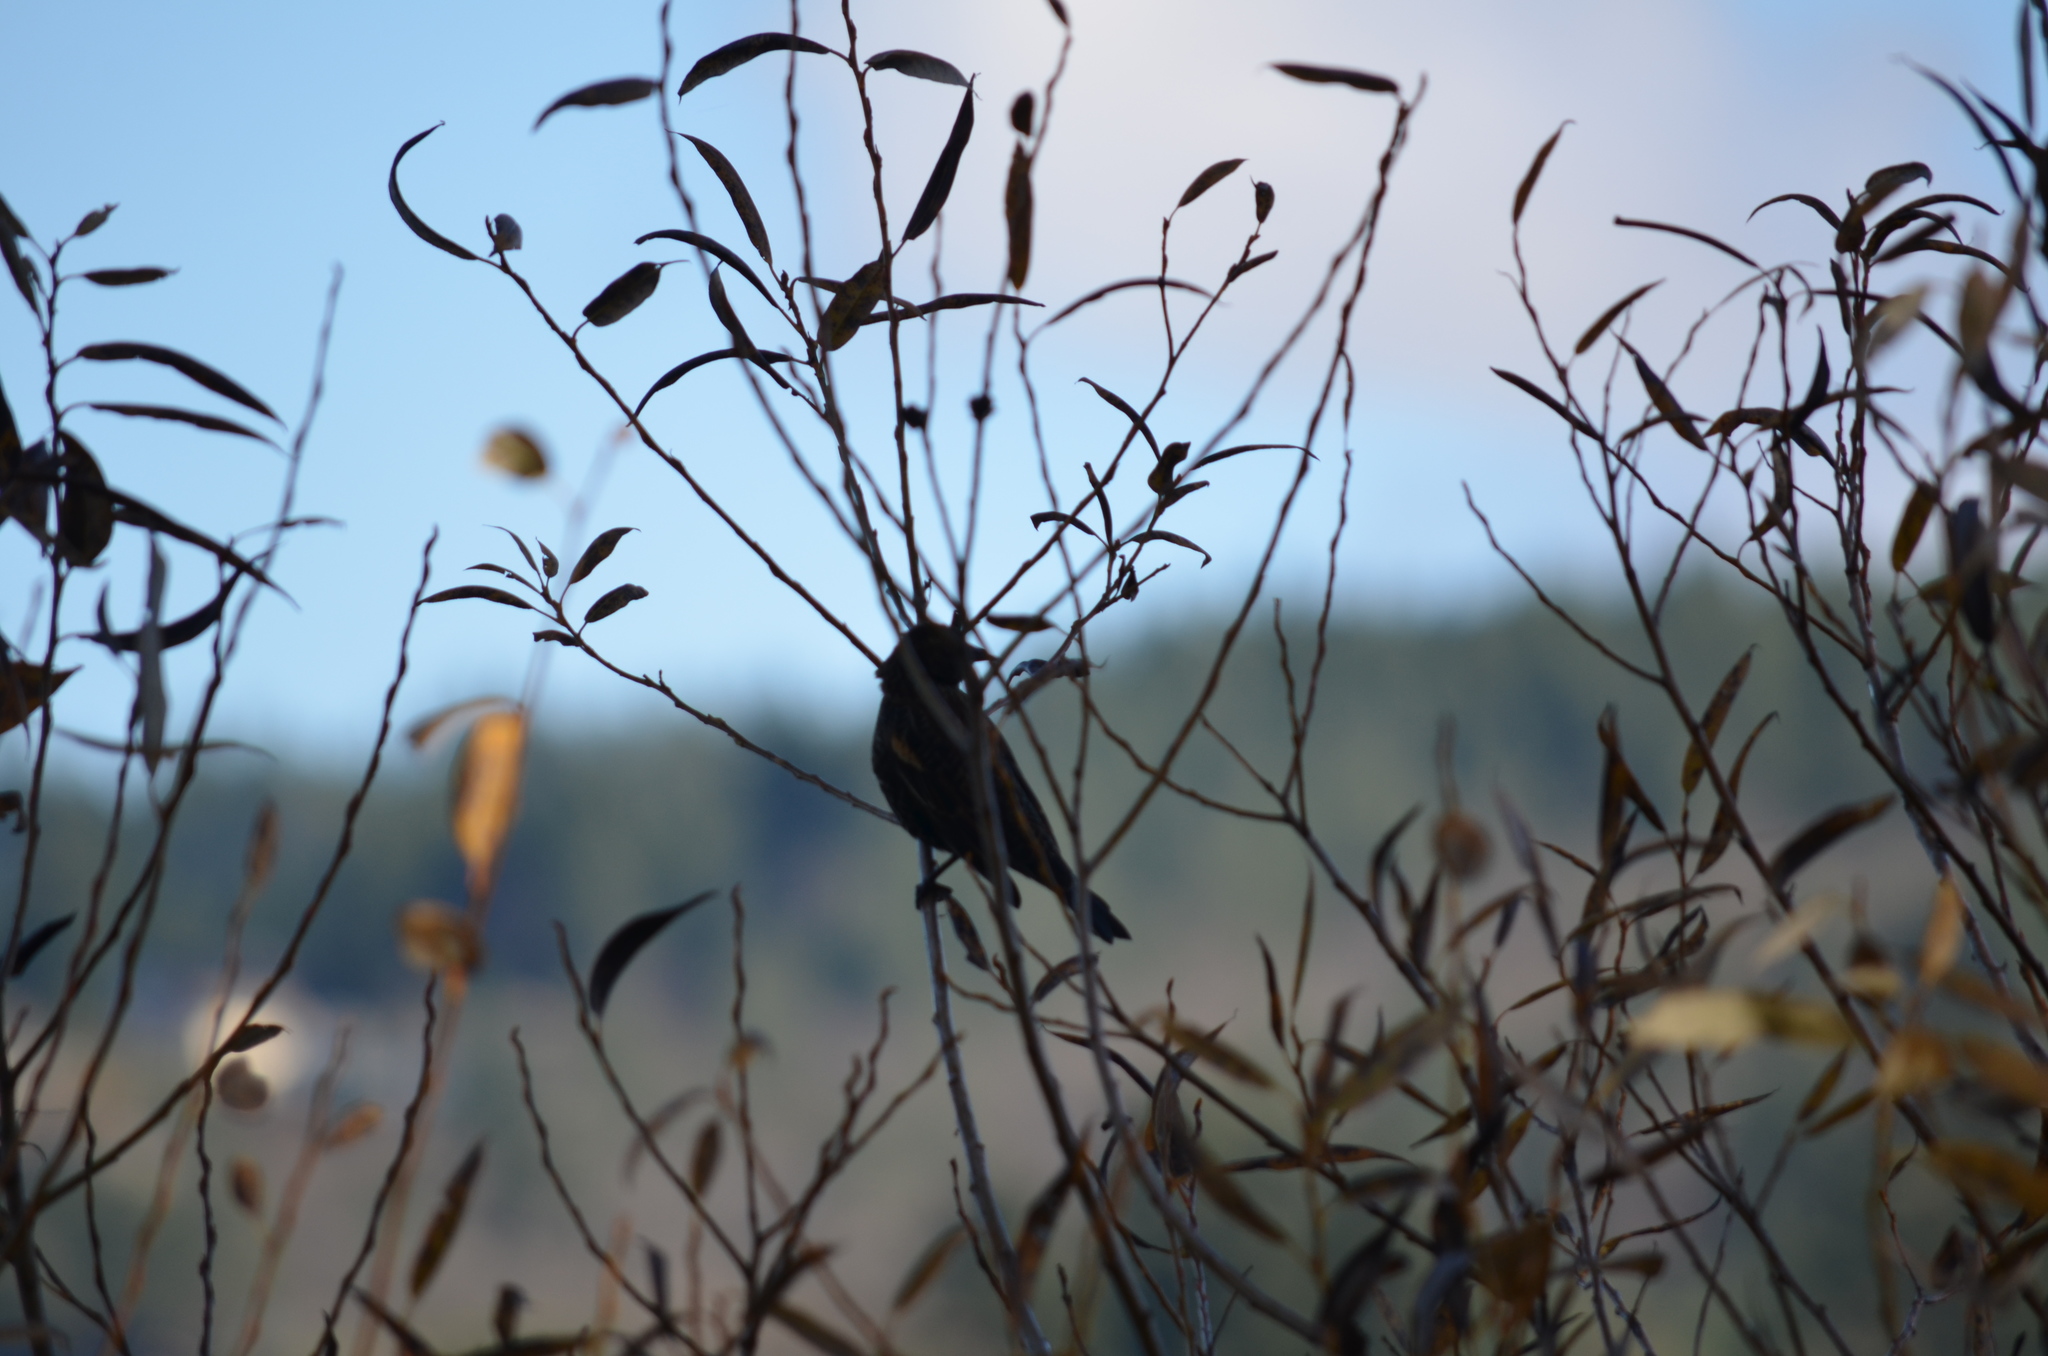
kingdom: Animalia
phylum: Chordata
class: Aves
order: Passeriformes
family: Icteridae
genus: Agelaius
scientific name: Agelaius phoeniceus
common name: Red-winged blackbird
